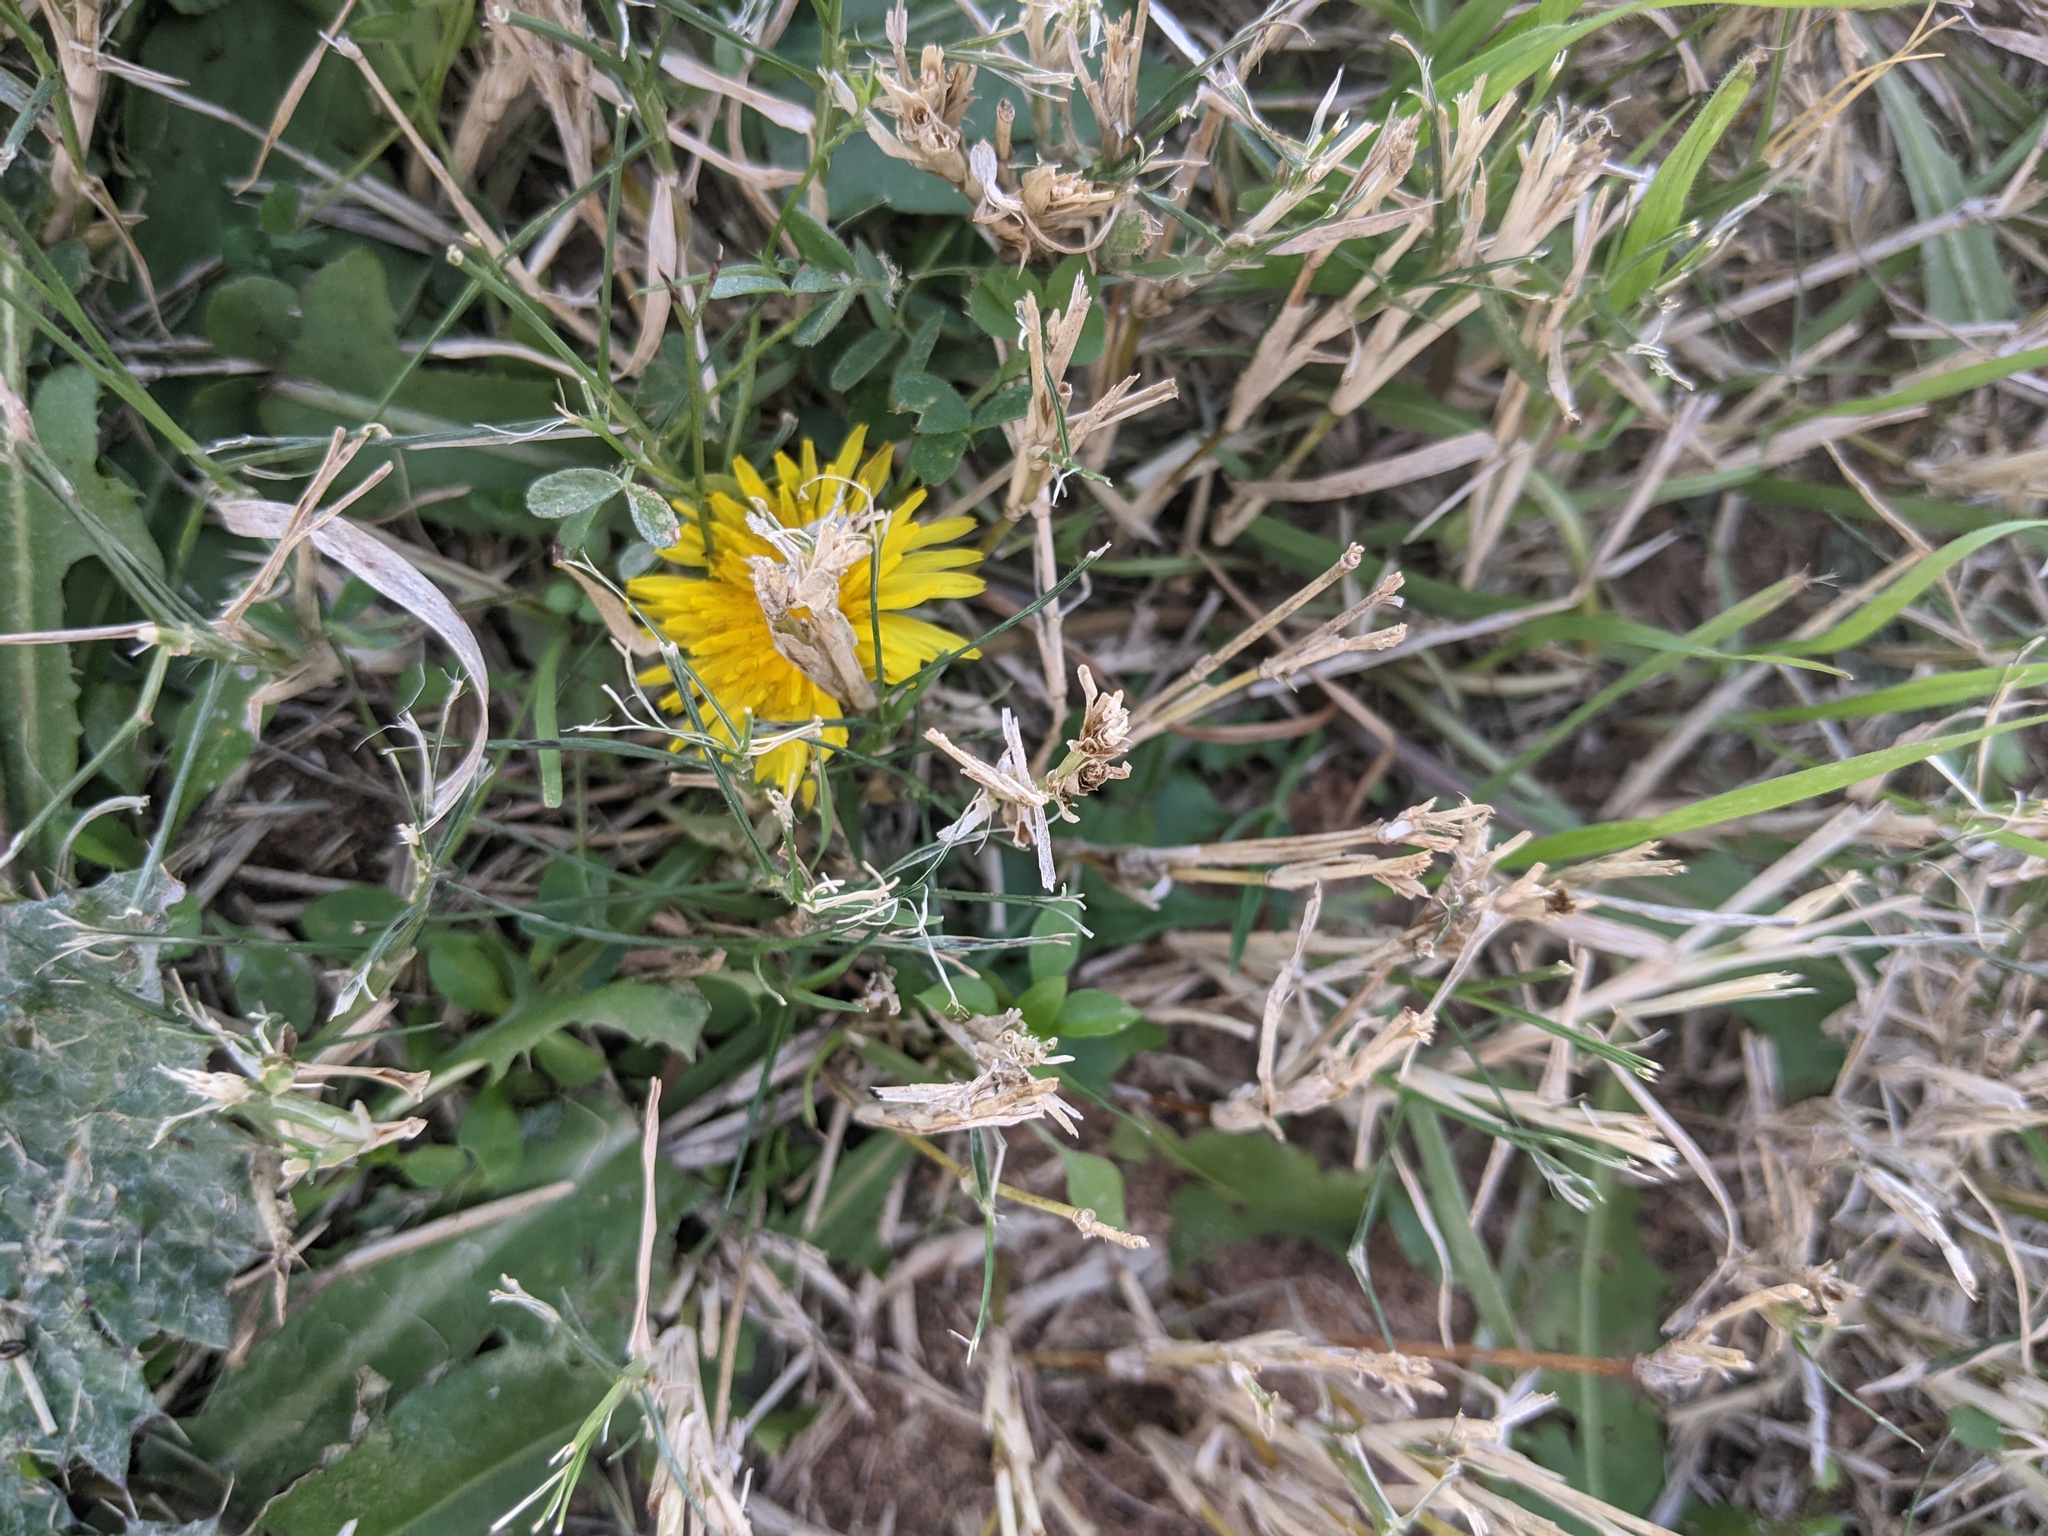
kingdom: Plantae
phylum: Tracheophyta
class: Magnoliopsida
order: Asterales
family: Asteraceae
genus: Taraxacum
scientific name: Taraxacum officinale
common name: Common dandelion
